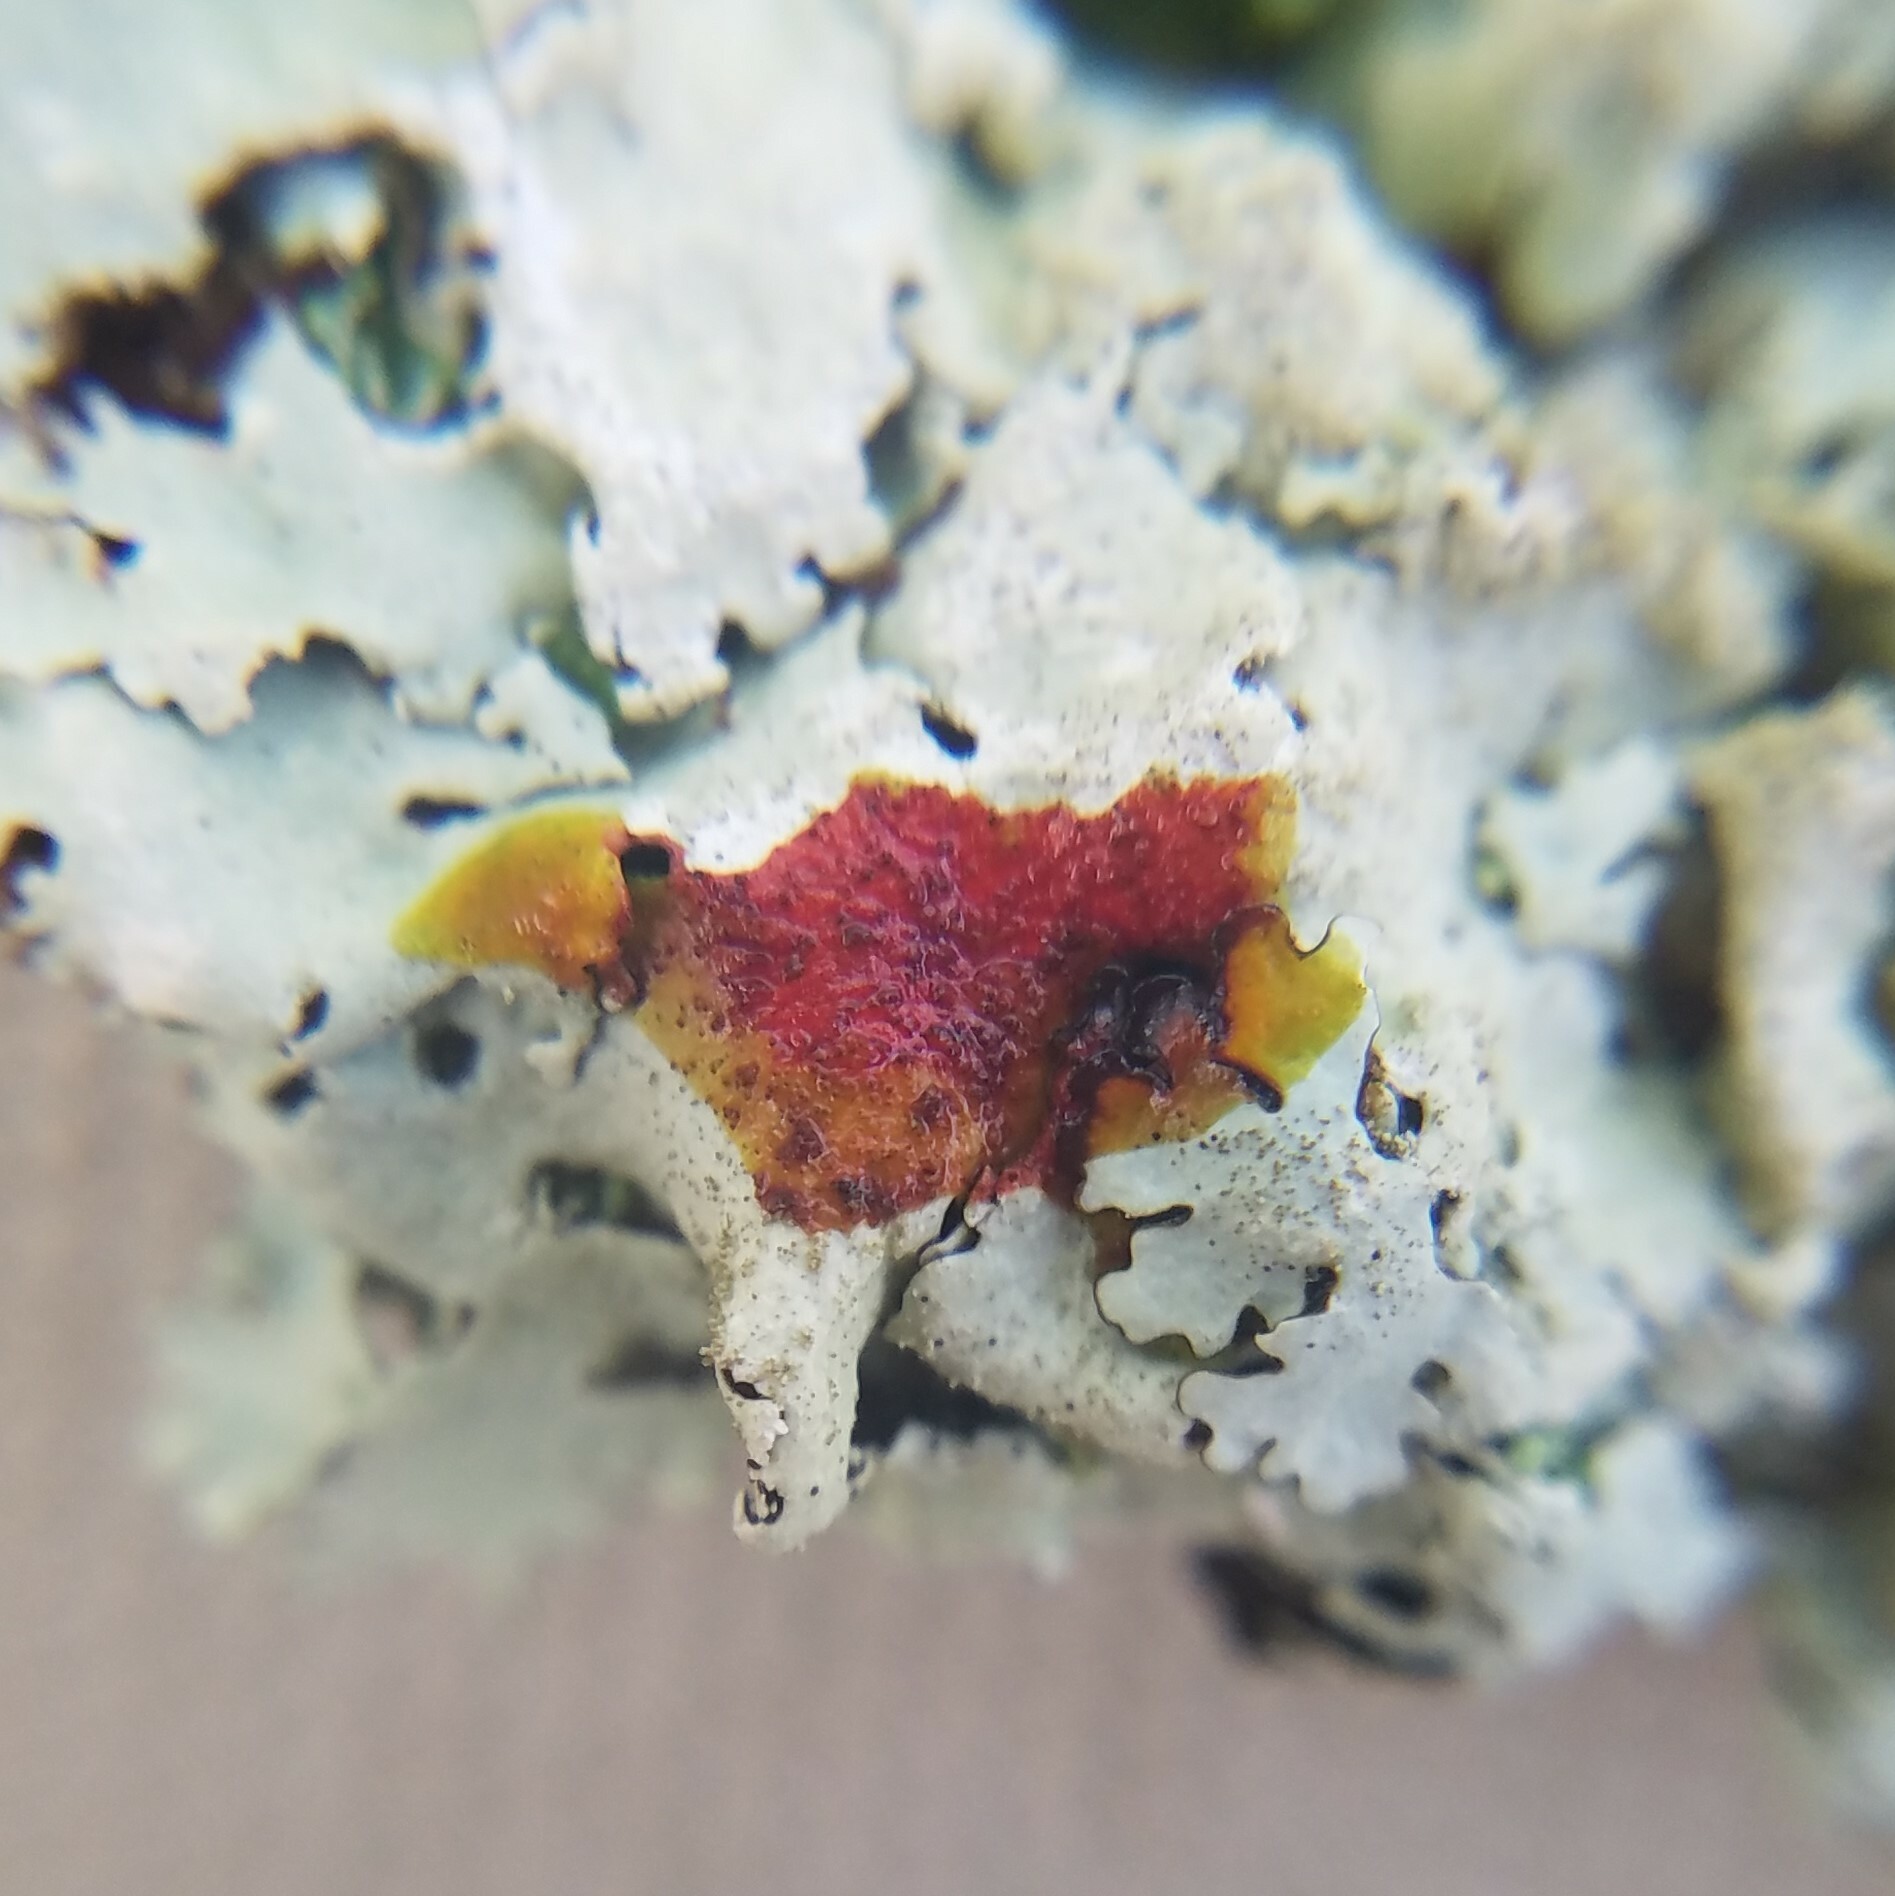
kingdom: Fungi
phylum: Ascomycota
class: Lecanoromycetes
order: Lecanorales
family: Parmeliaceae
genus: Parmelinella
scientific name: Parmelinella salacinifera
